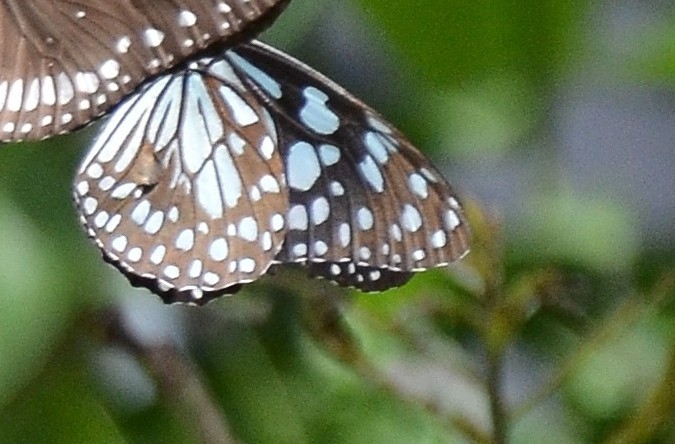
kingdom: Animalia
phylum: Arthropoda
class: Insecta
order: Lepidoptera
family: Nymphalidae
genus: Tirumala
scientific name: Tirumala limniace
